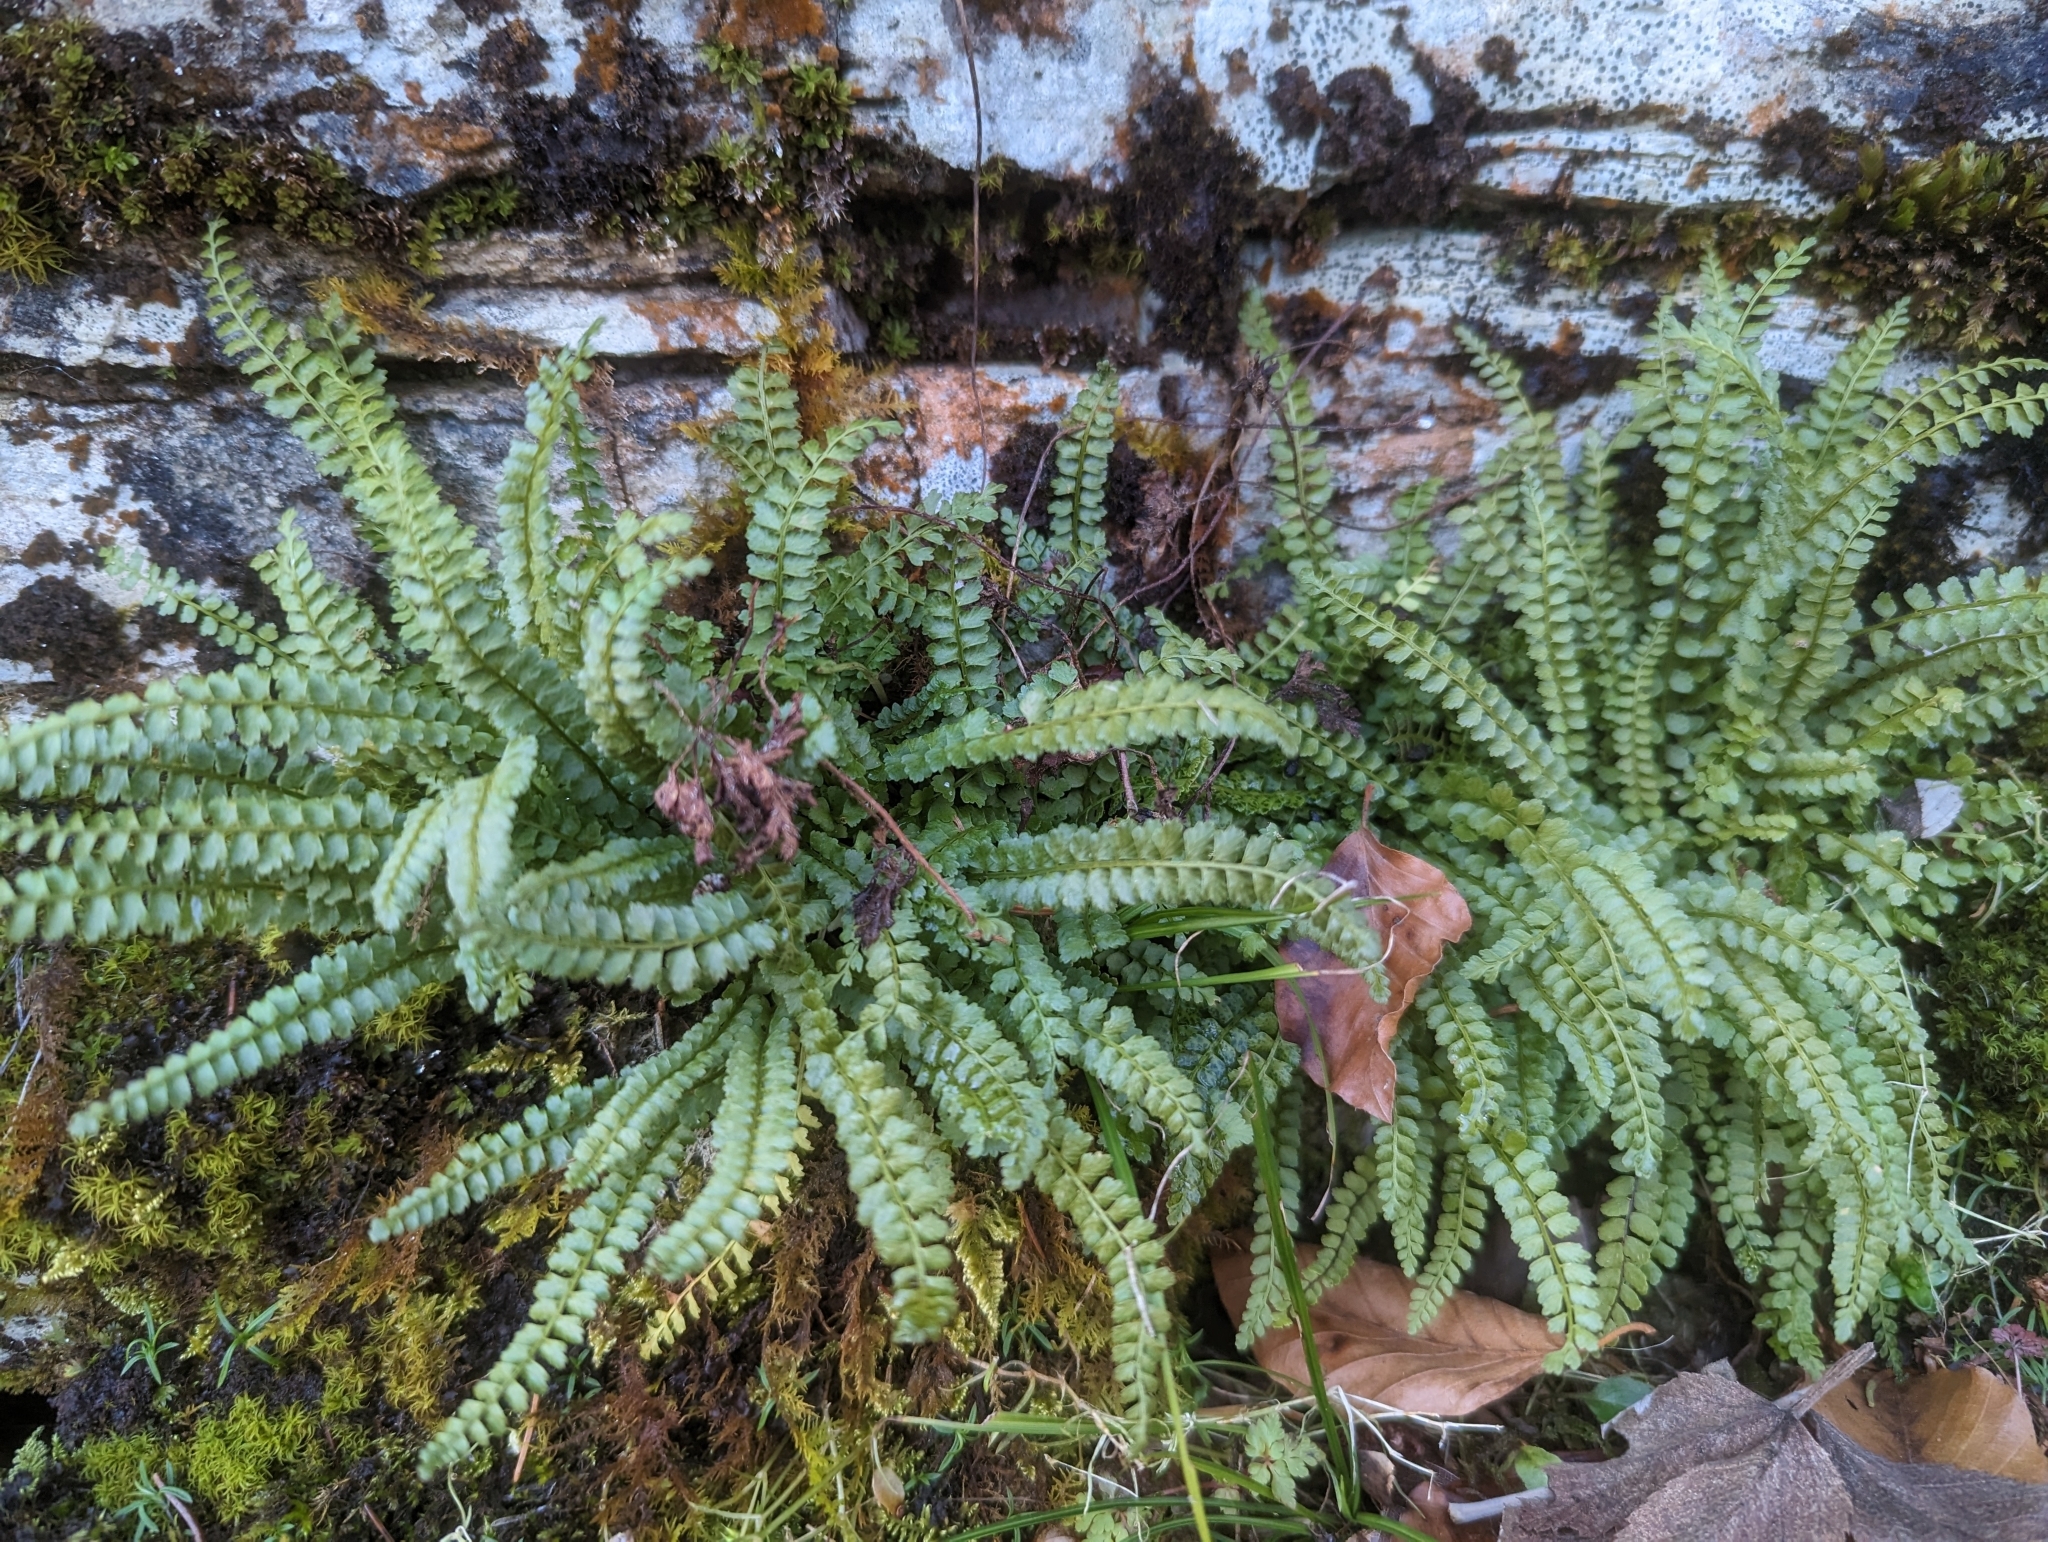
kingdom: Plantae
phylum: Tracheophyta
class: Polypodiopsida
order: Polypodiales
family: Aspleniaceae
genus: Asplenium
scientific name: Asplenium viride
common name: Green spleenwort
